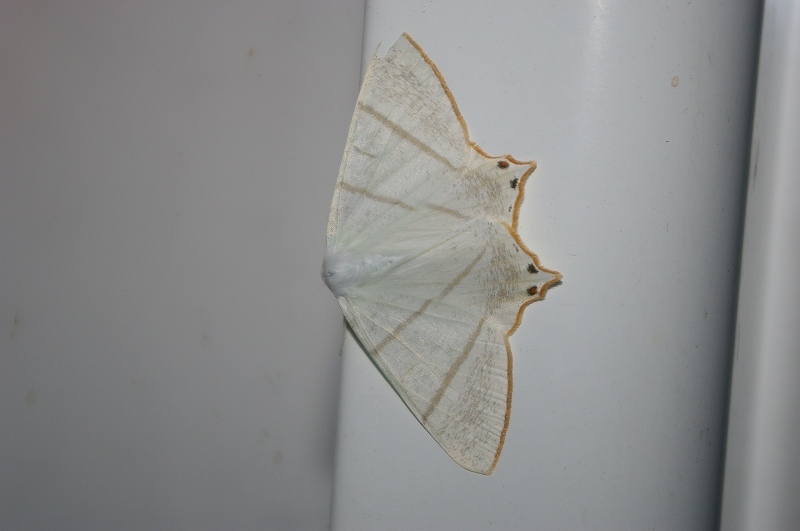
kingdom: Animalia
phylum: Arthropoda
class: Insecta
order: Lepidoptera
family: Geometridae
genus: Ourapteryx
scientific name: Ourapteryx nomurai
